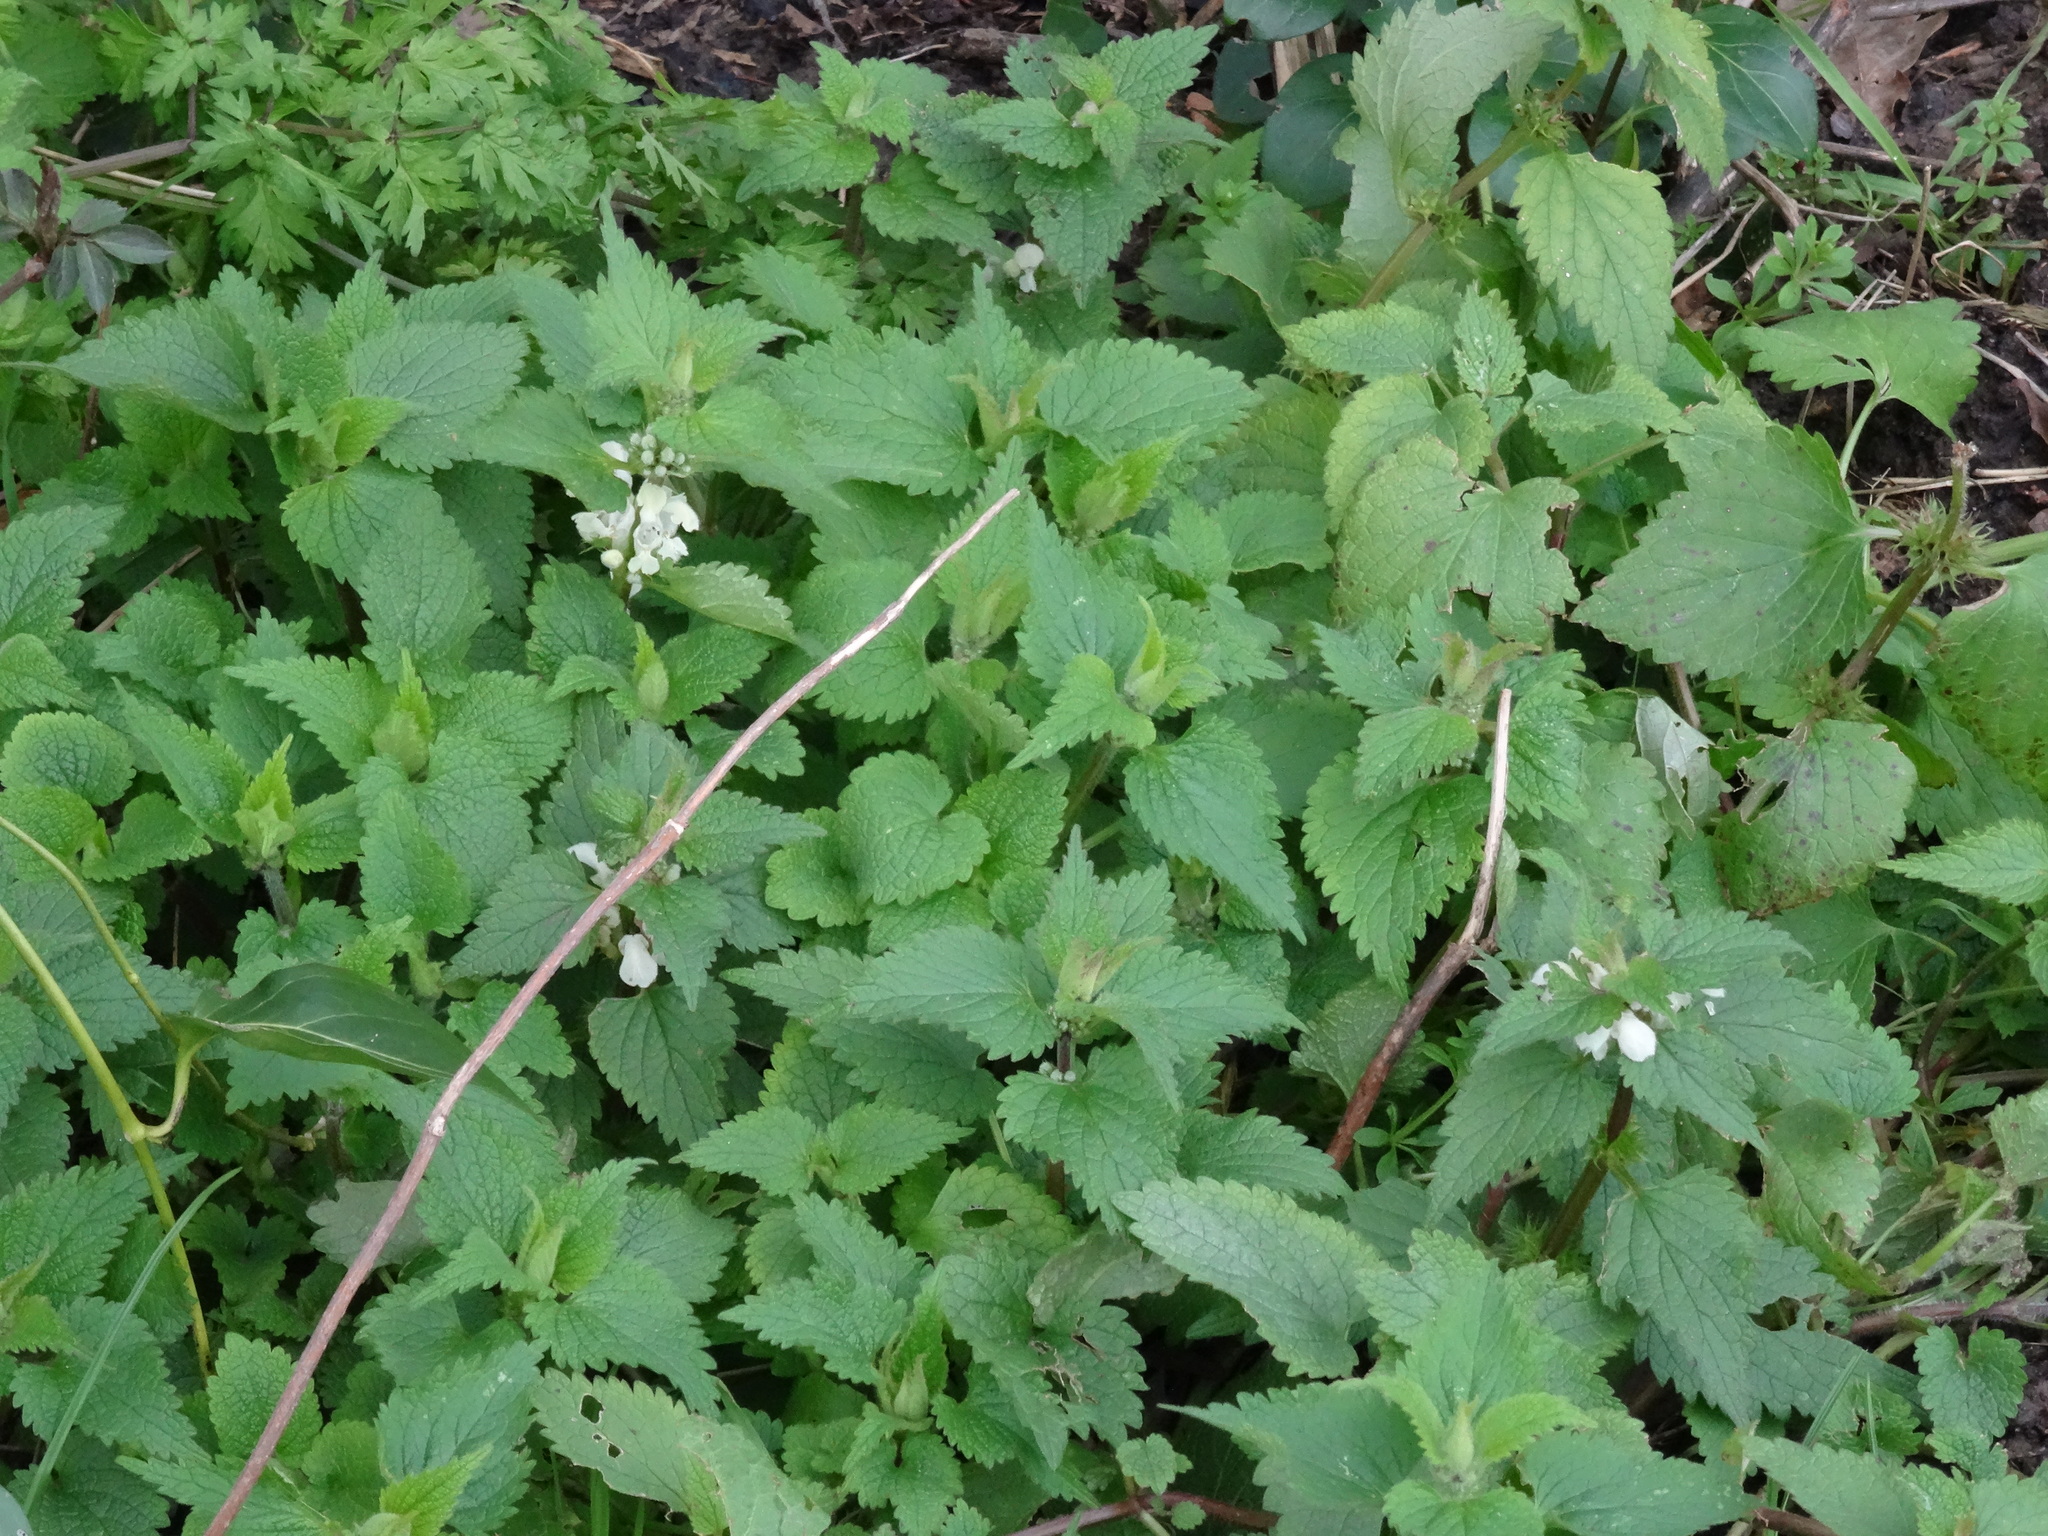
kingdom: Plantae
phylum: Tracheophyta
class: Magnoliopsida
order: Lamiales
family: Lamiaceae
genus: Lamium
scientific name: Lamium album
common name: White dead-nettle
